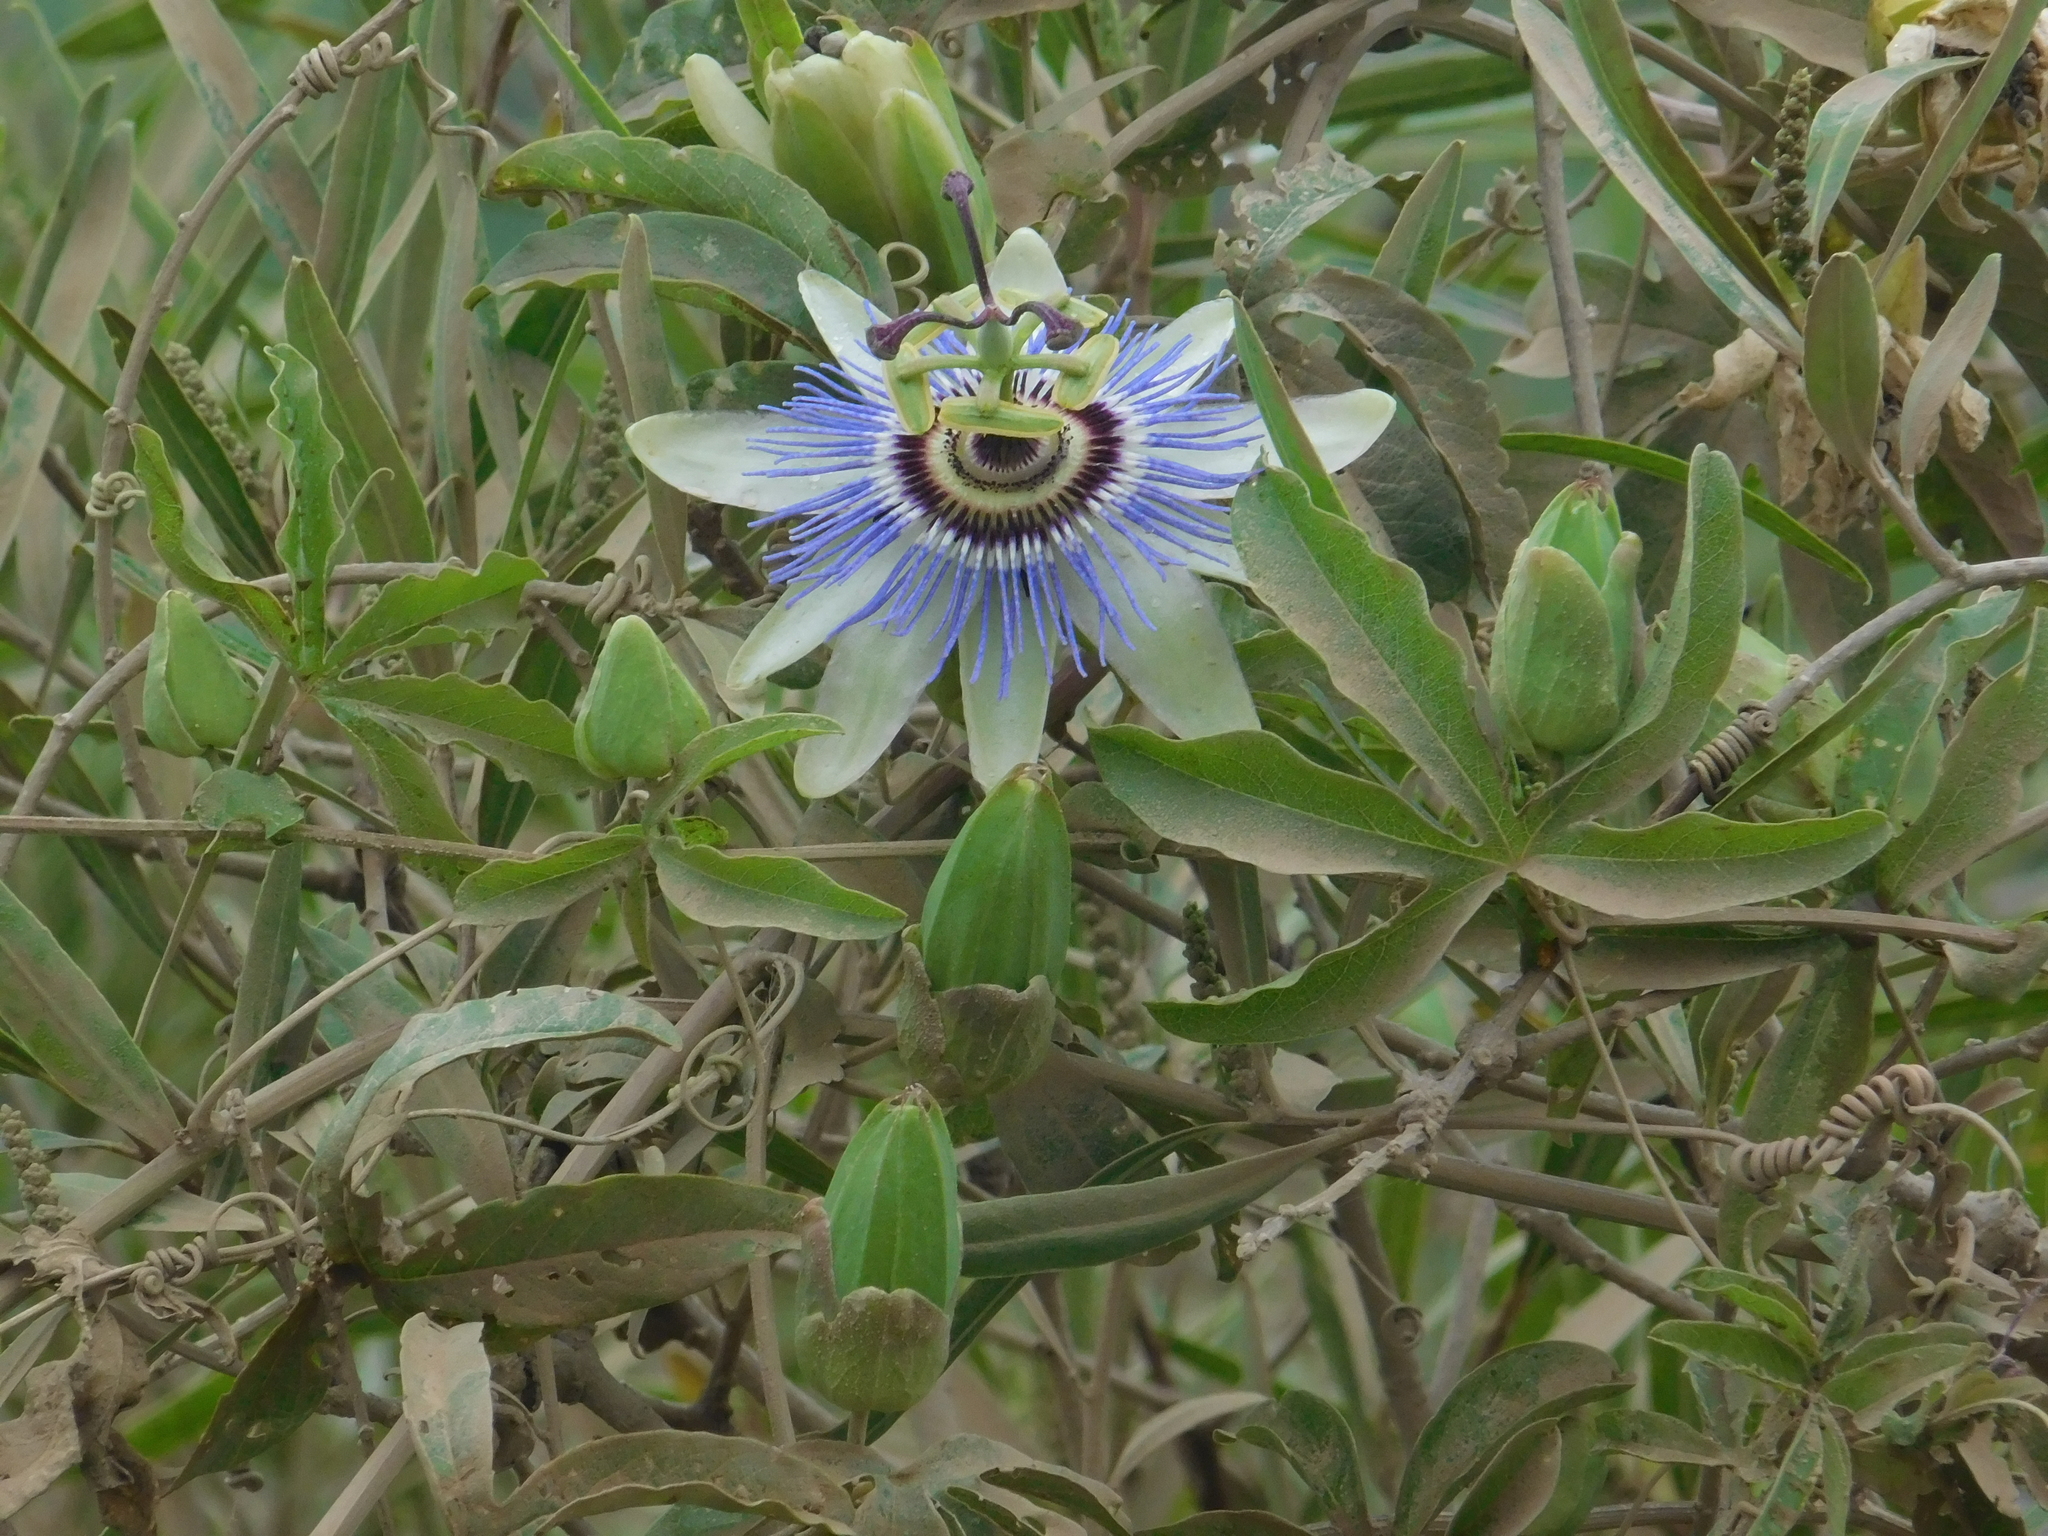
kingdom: Plantae
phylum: Tracheophyta
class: Magnoliopsida
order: Malpighiales
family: Passifloraceae
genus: Passiflora
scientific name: Passiflora caerulea
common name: Blue passionflower
